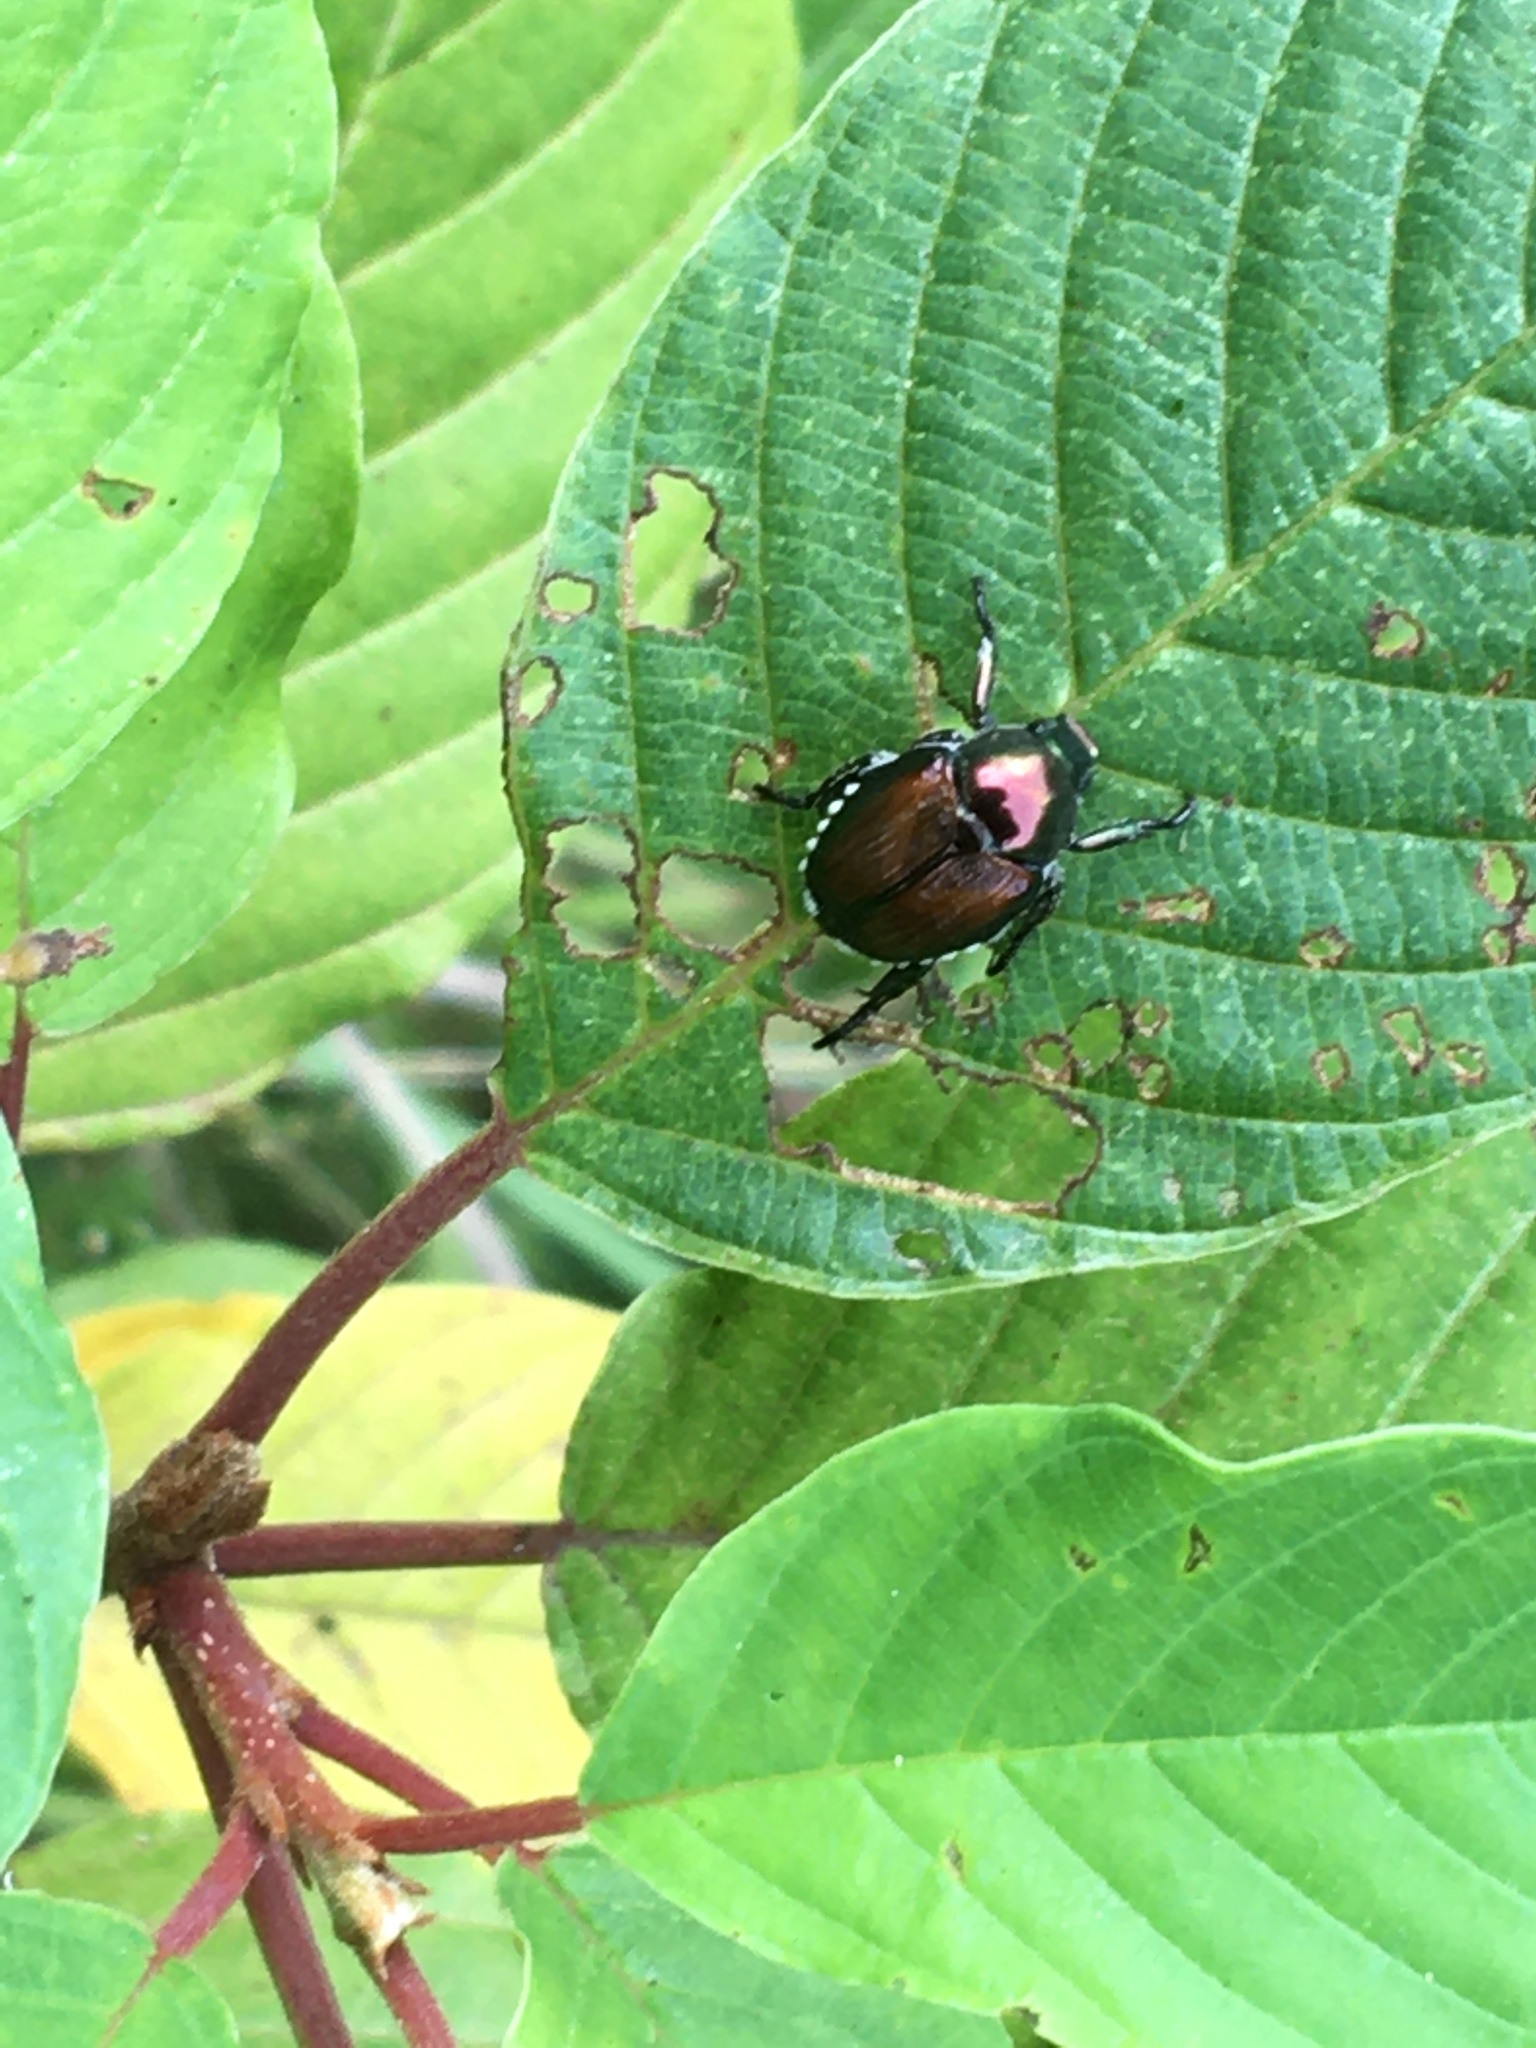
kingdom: Animalia
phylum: Arthropoda
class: Insecta
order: Coleoptera
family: Scarabaeidae
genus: Popillia
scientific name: Popillia japonica
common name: Japanese beetle
